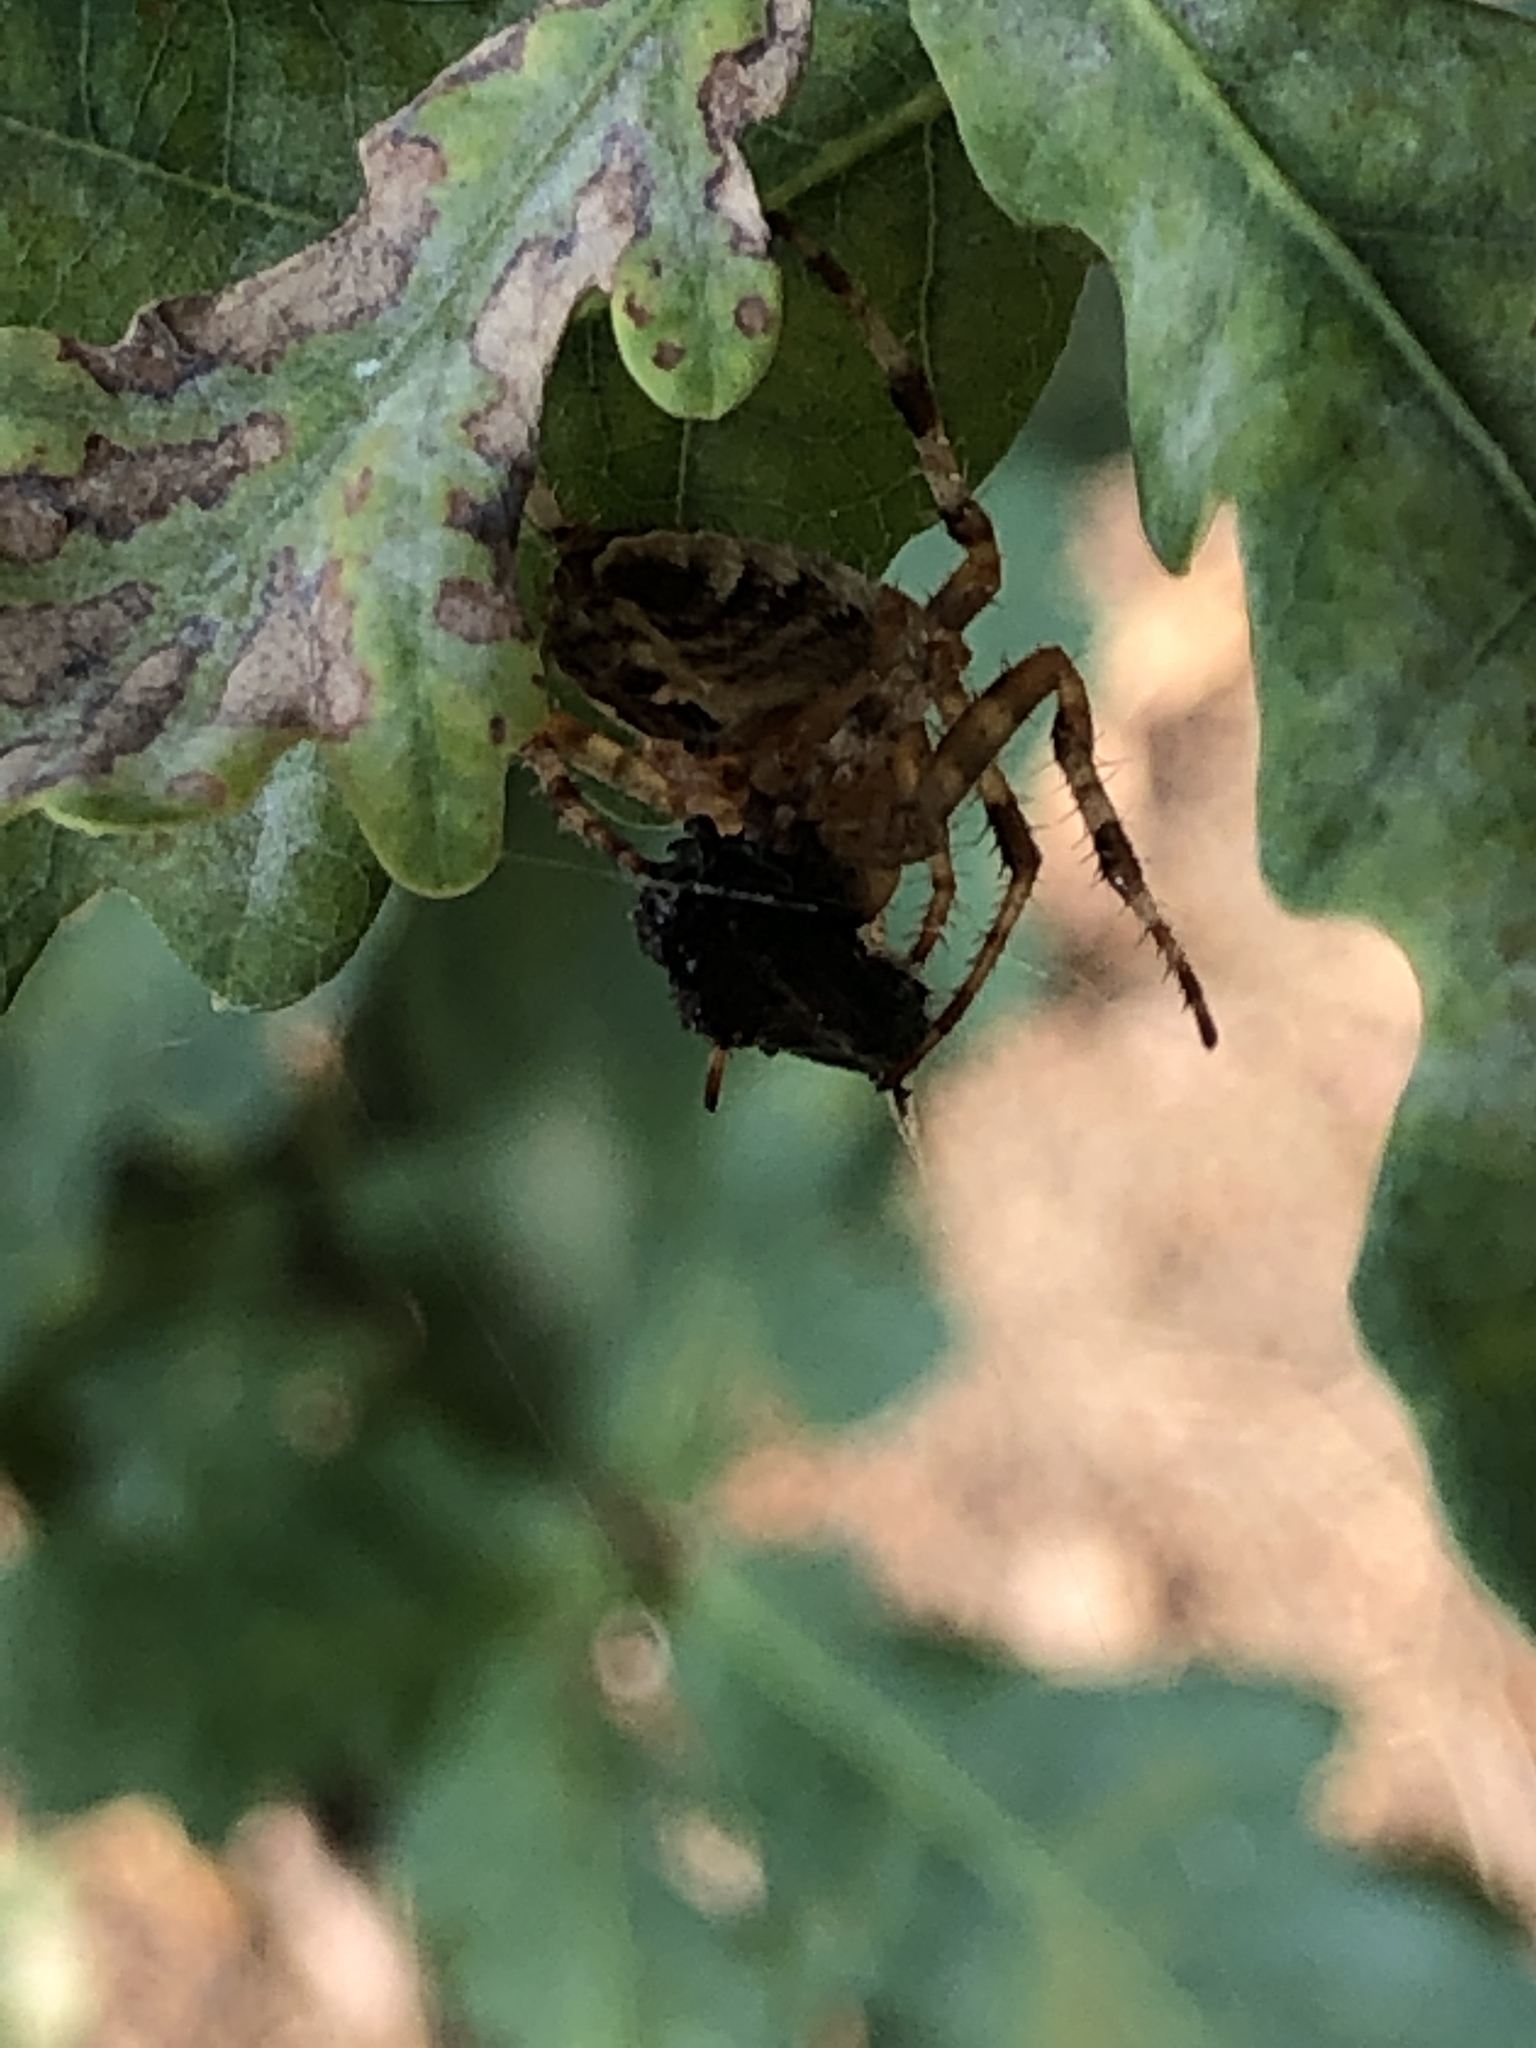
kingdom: Animalia
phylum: Arthropoda
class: Arachnida
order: Araneae
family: Araneidae
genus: Araneus
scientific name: Araneus diadematus
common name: Cross orbweaver
